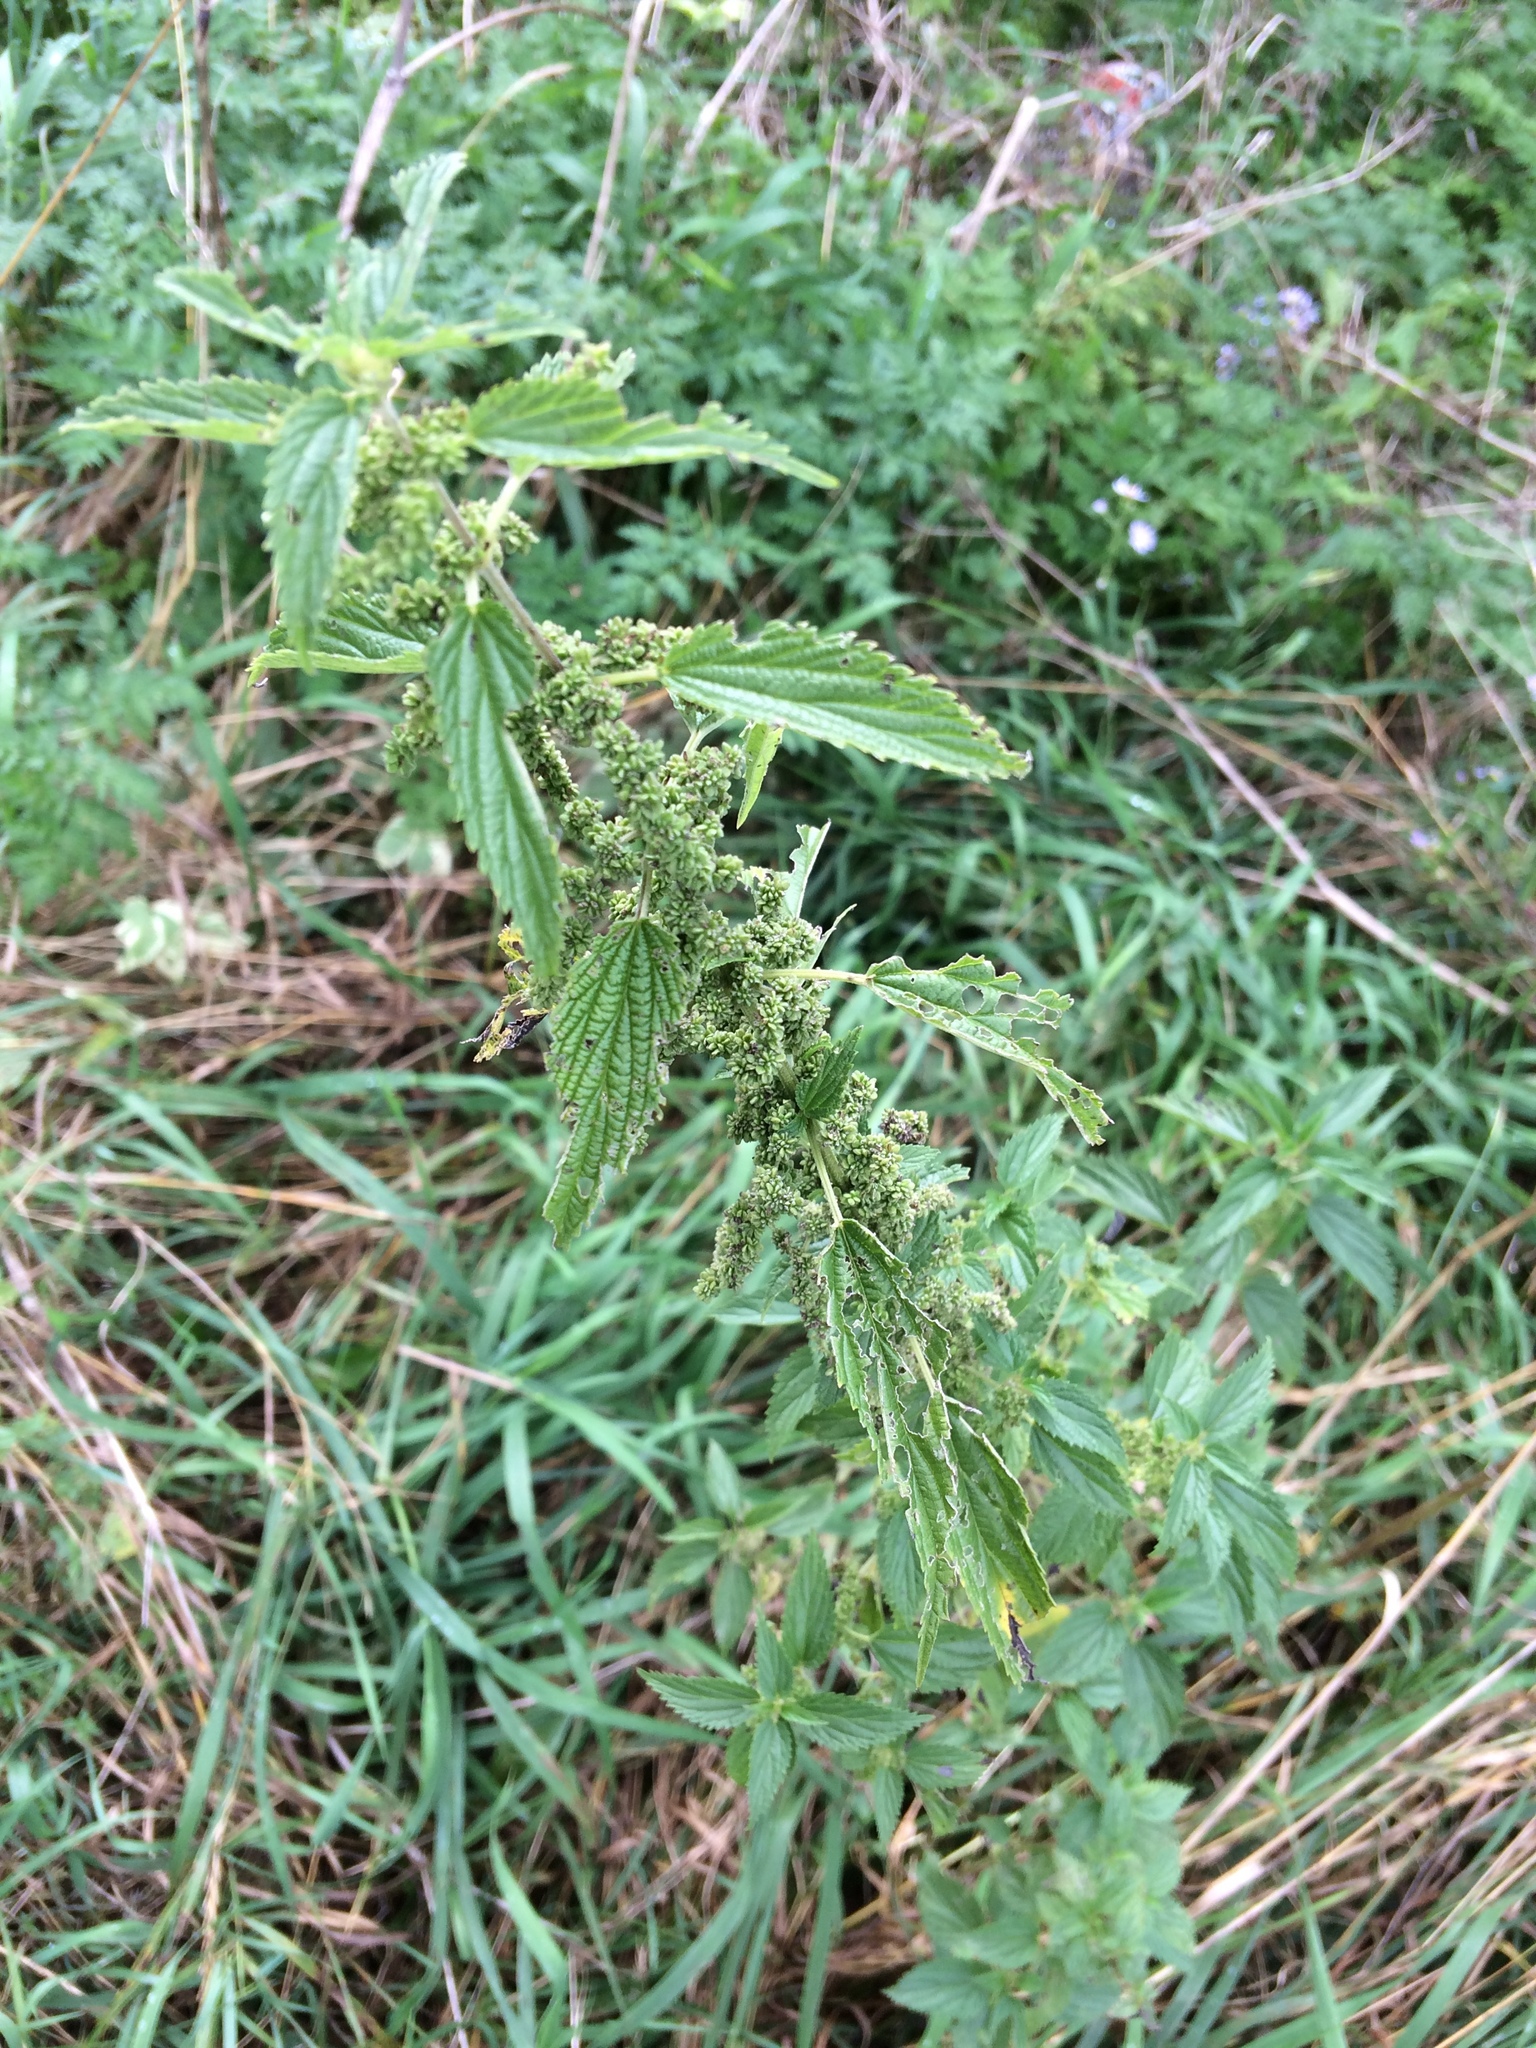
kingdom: Plantae
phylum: Tracheophyta
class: Magnoliopsida
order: Rosales
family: Urticaceae
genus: Urtica
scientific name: Urtica dioica
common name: Common nettle
